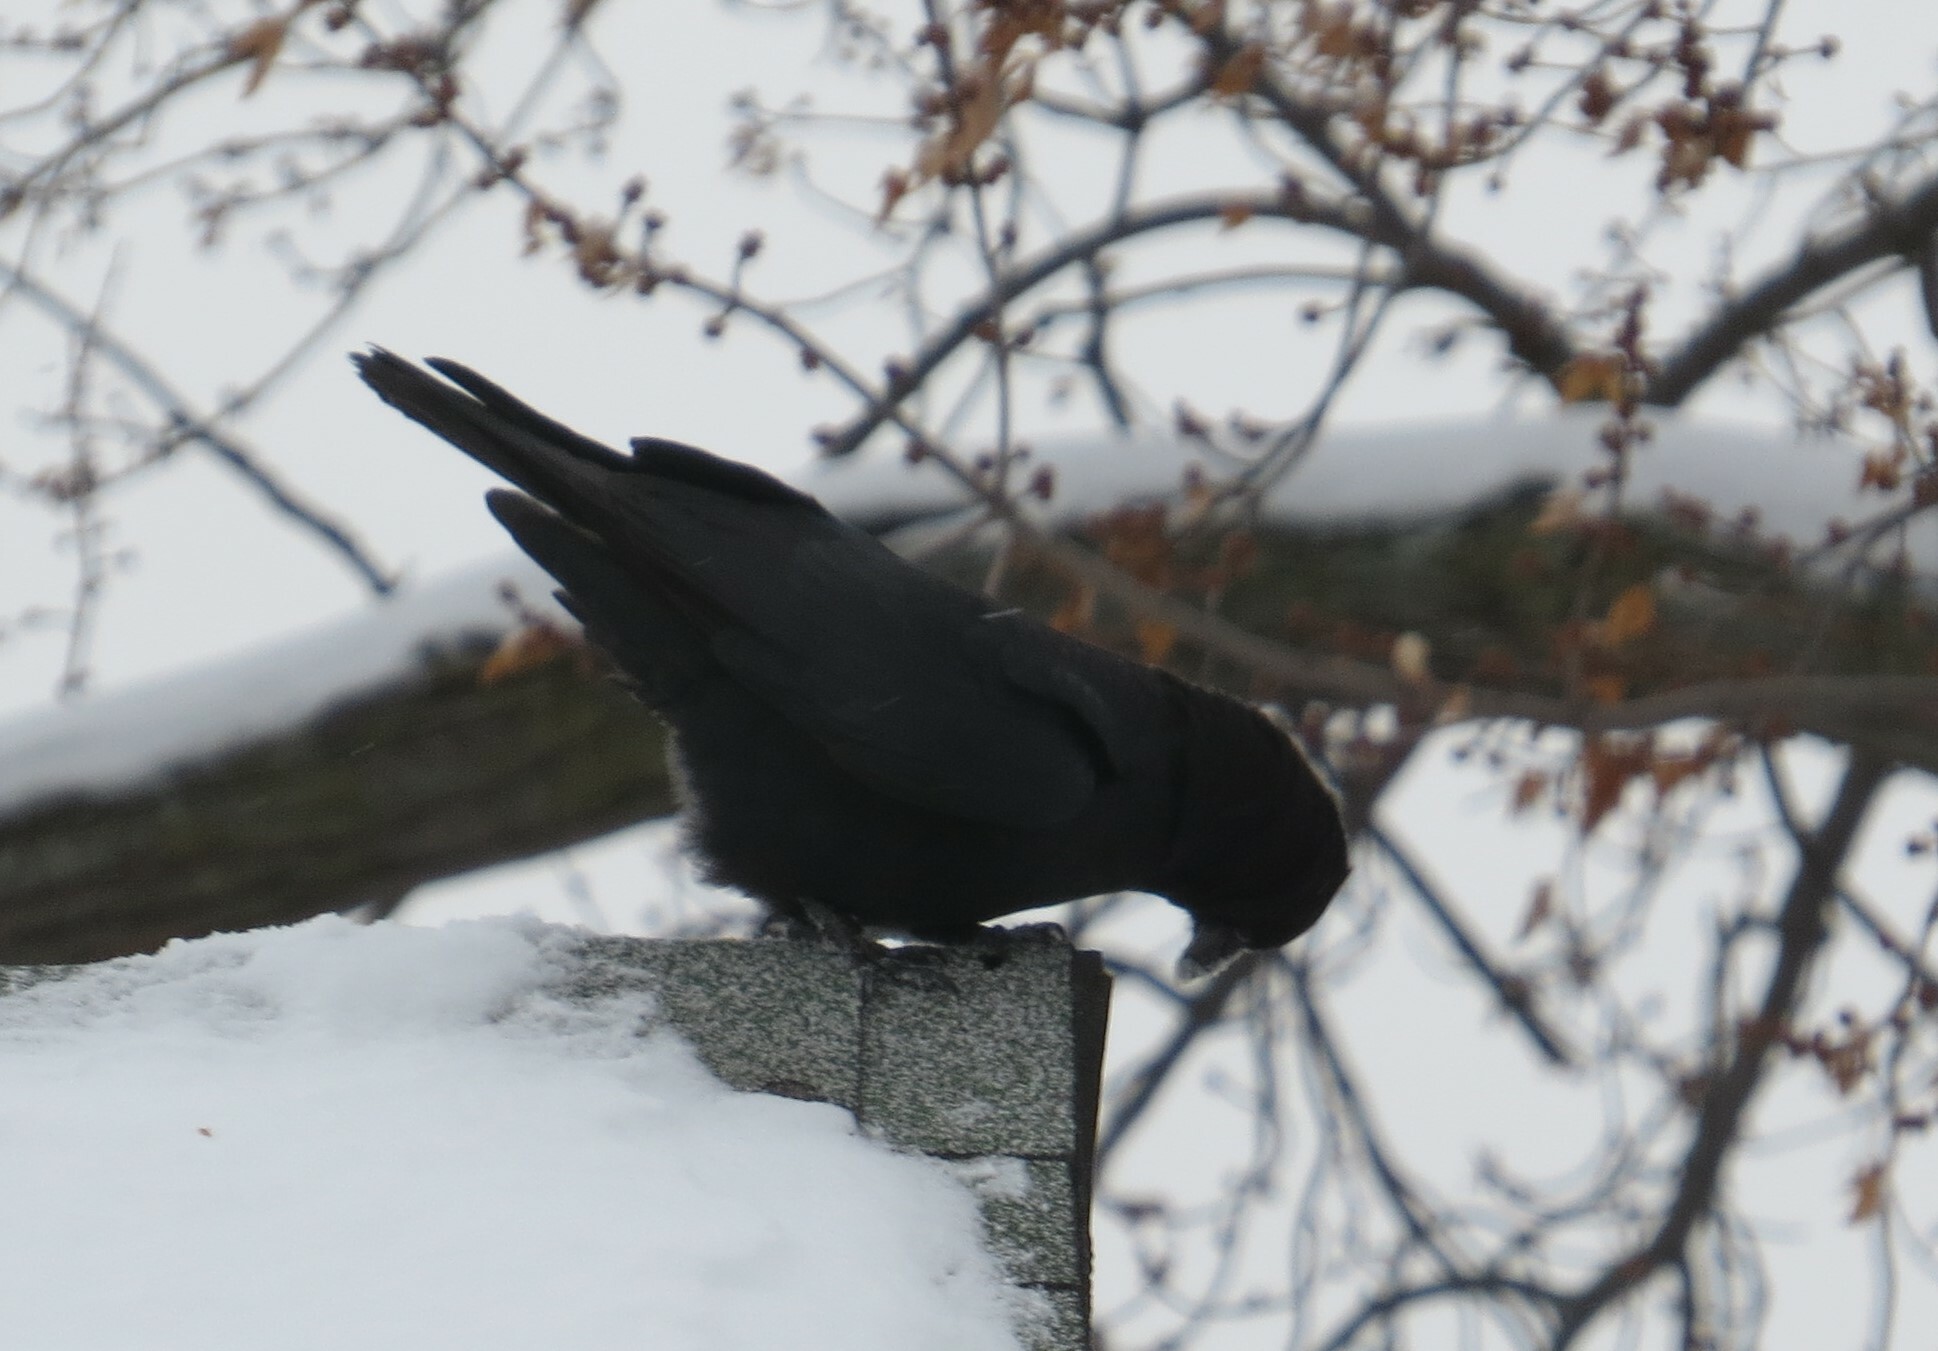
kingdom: Animalia
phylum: Chordata
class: Aves
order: Passeriformes
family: Corvidae
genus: Corvus
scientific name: Corvus brachyrhynchos
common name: American crow
